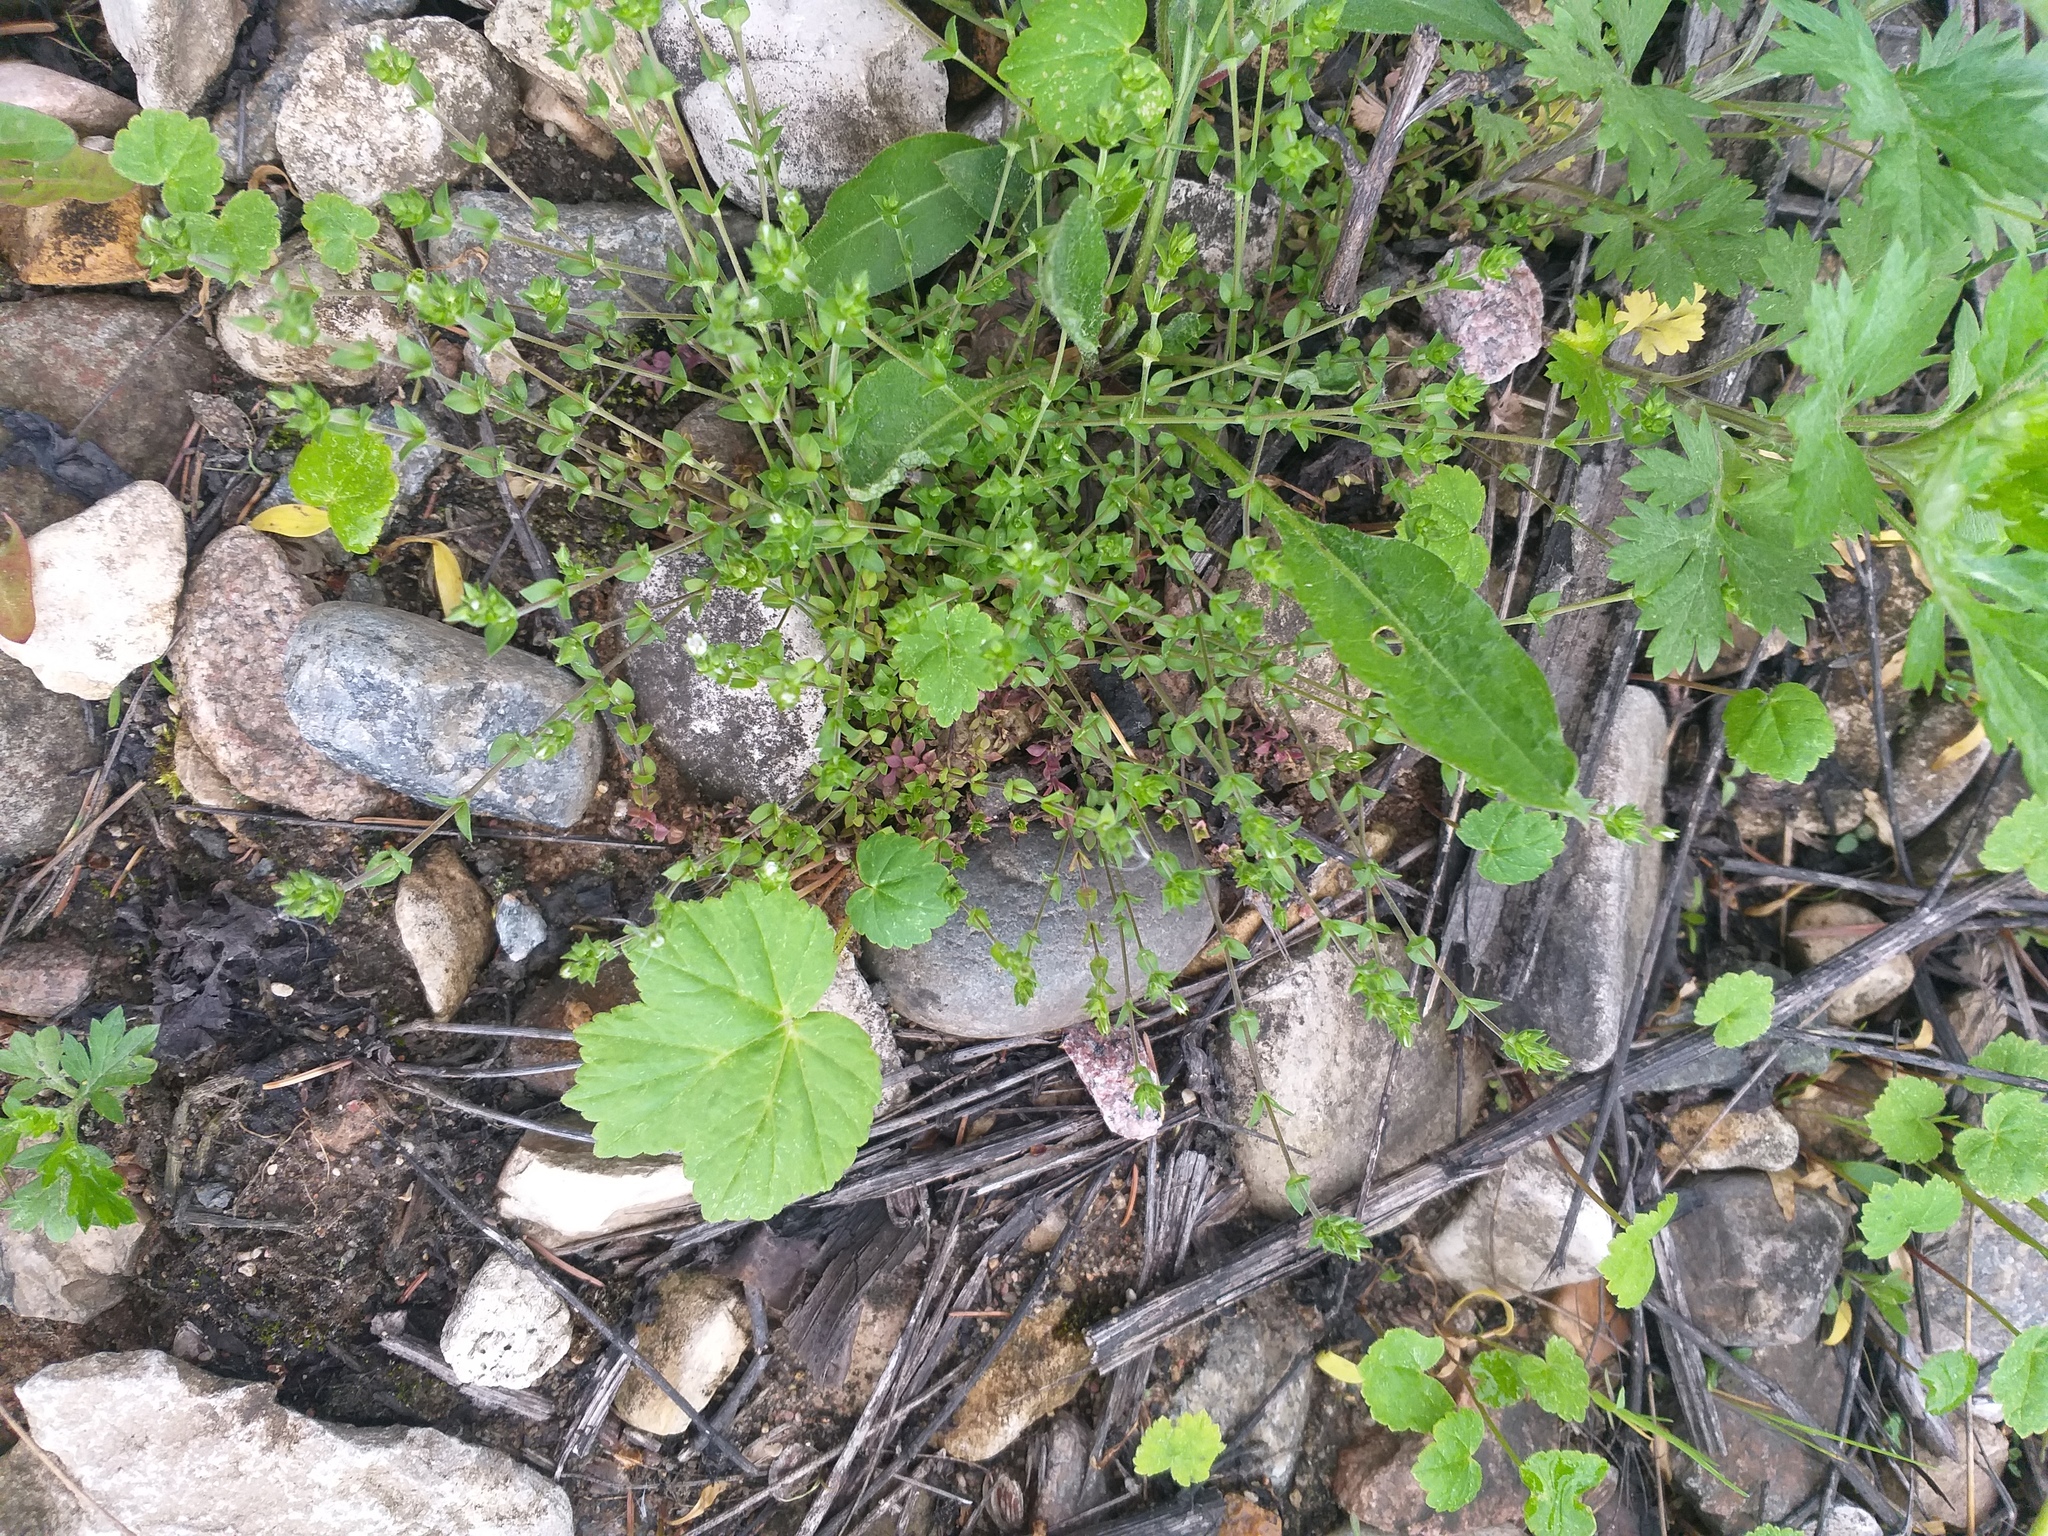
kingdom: Plantae
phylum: Tracheophyta
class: Magnoliopsida
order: Caryophyllales
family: Caryophyllaceae
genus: Arenaria
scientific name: Arenaria serpyllifolia
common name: Thyme-leaved sandwort
